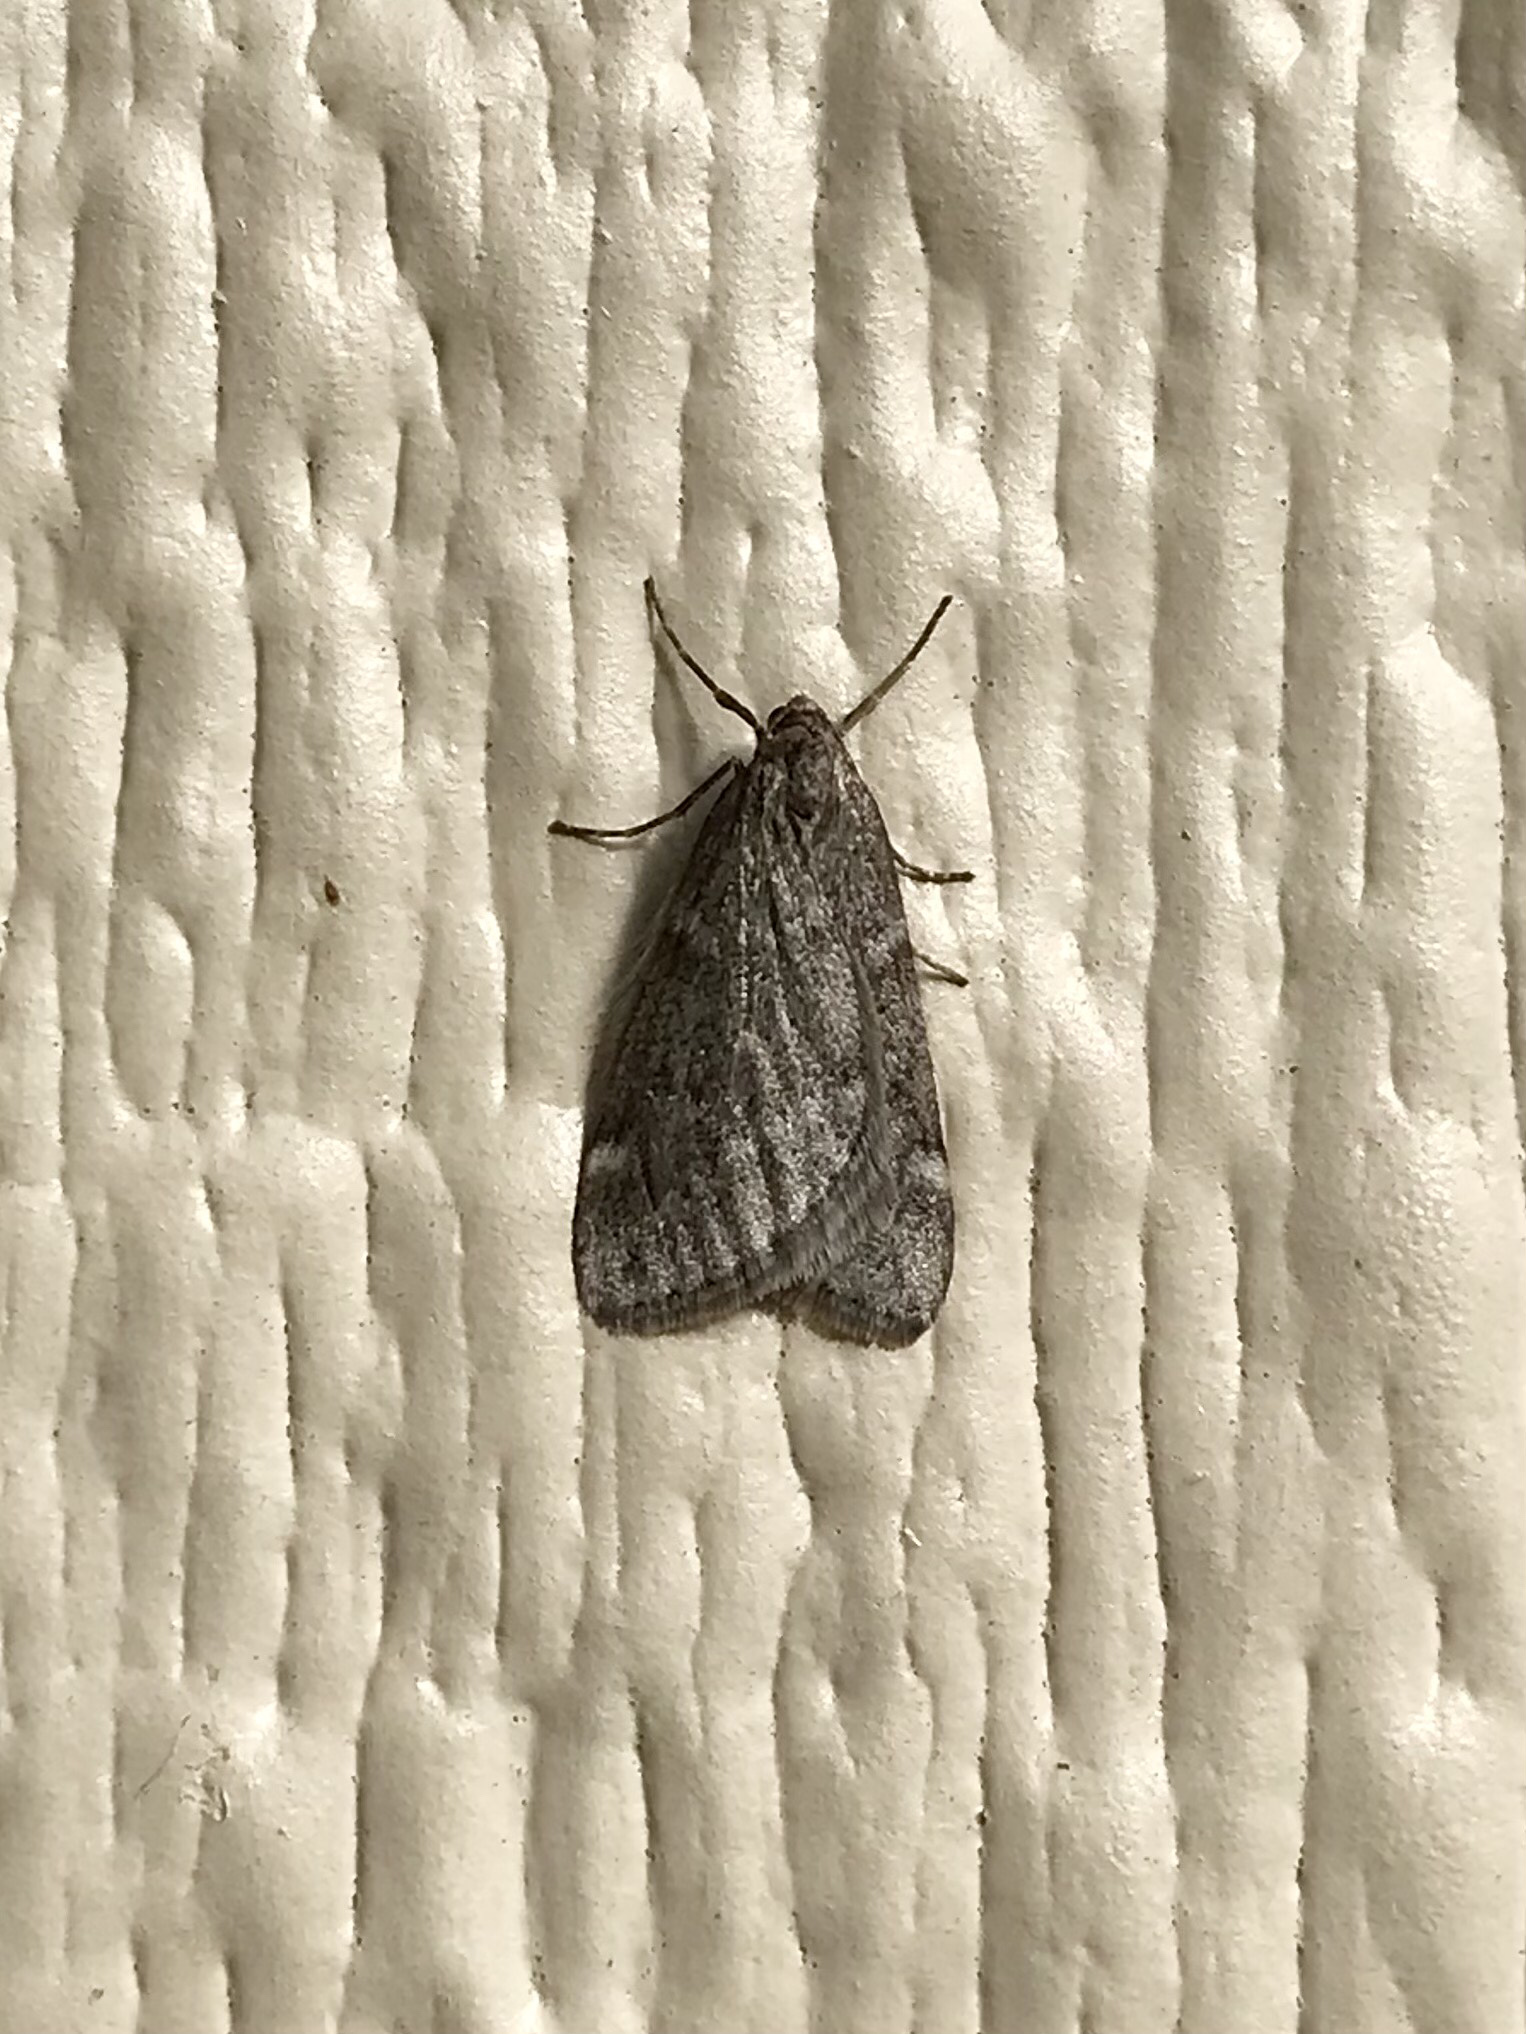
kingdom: Animalia
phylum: Arthropoda
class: Insecta
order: Lepidoptera
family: Geometridae
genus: Alsophila
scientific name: Alsophila pometaria
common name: Fall cankerworm
